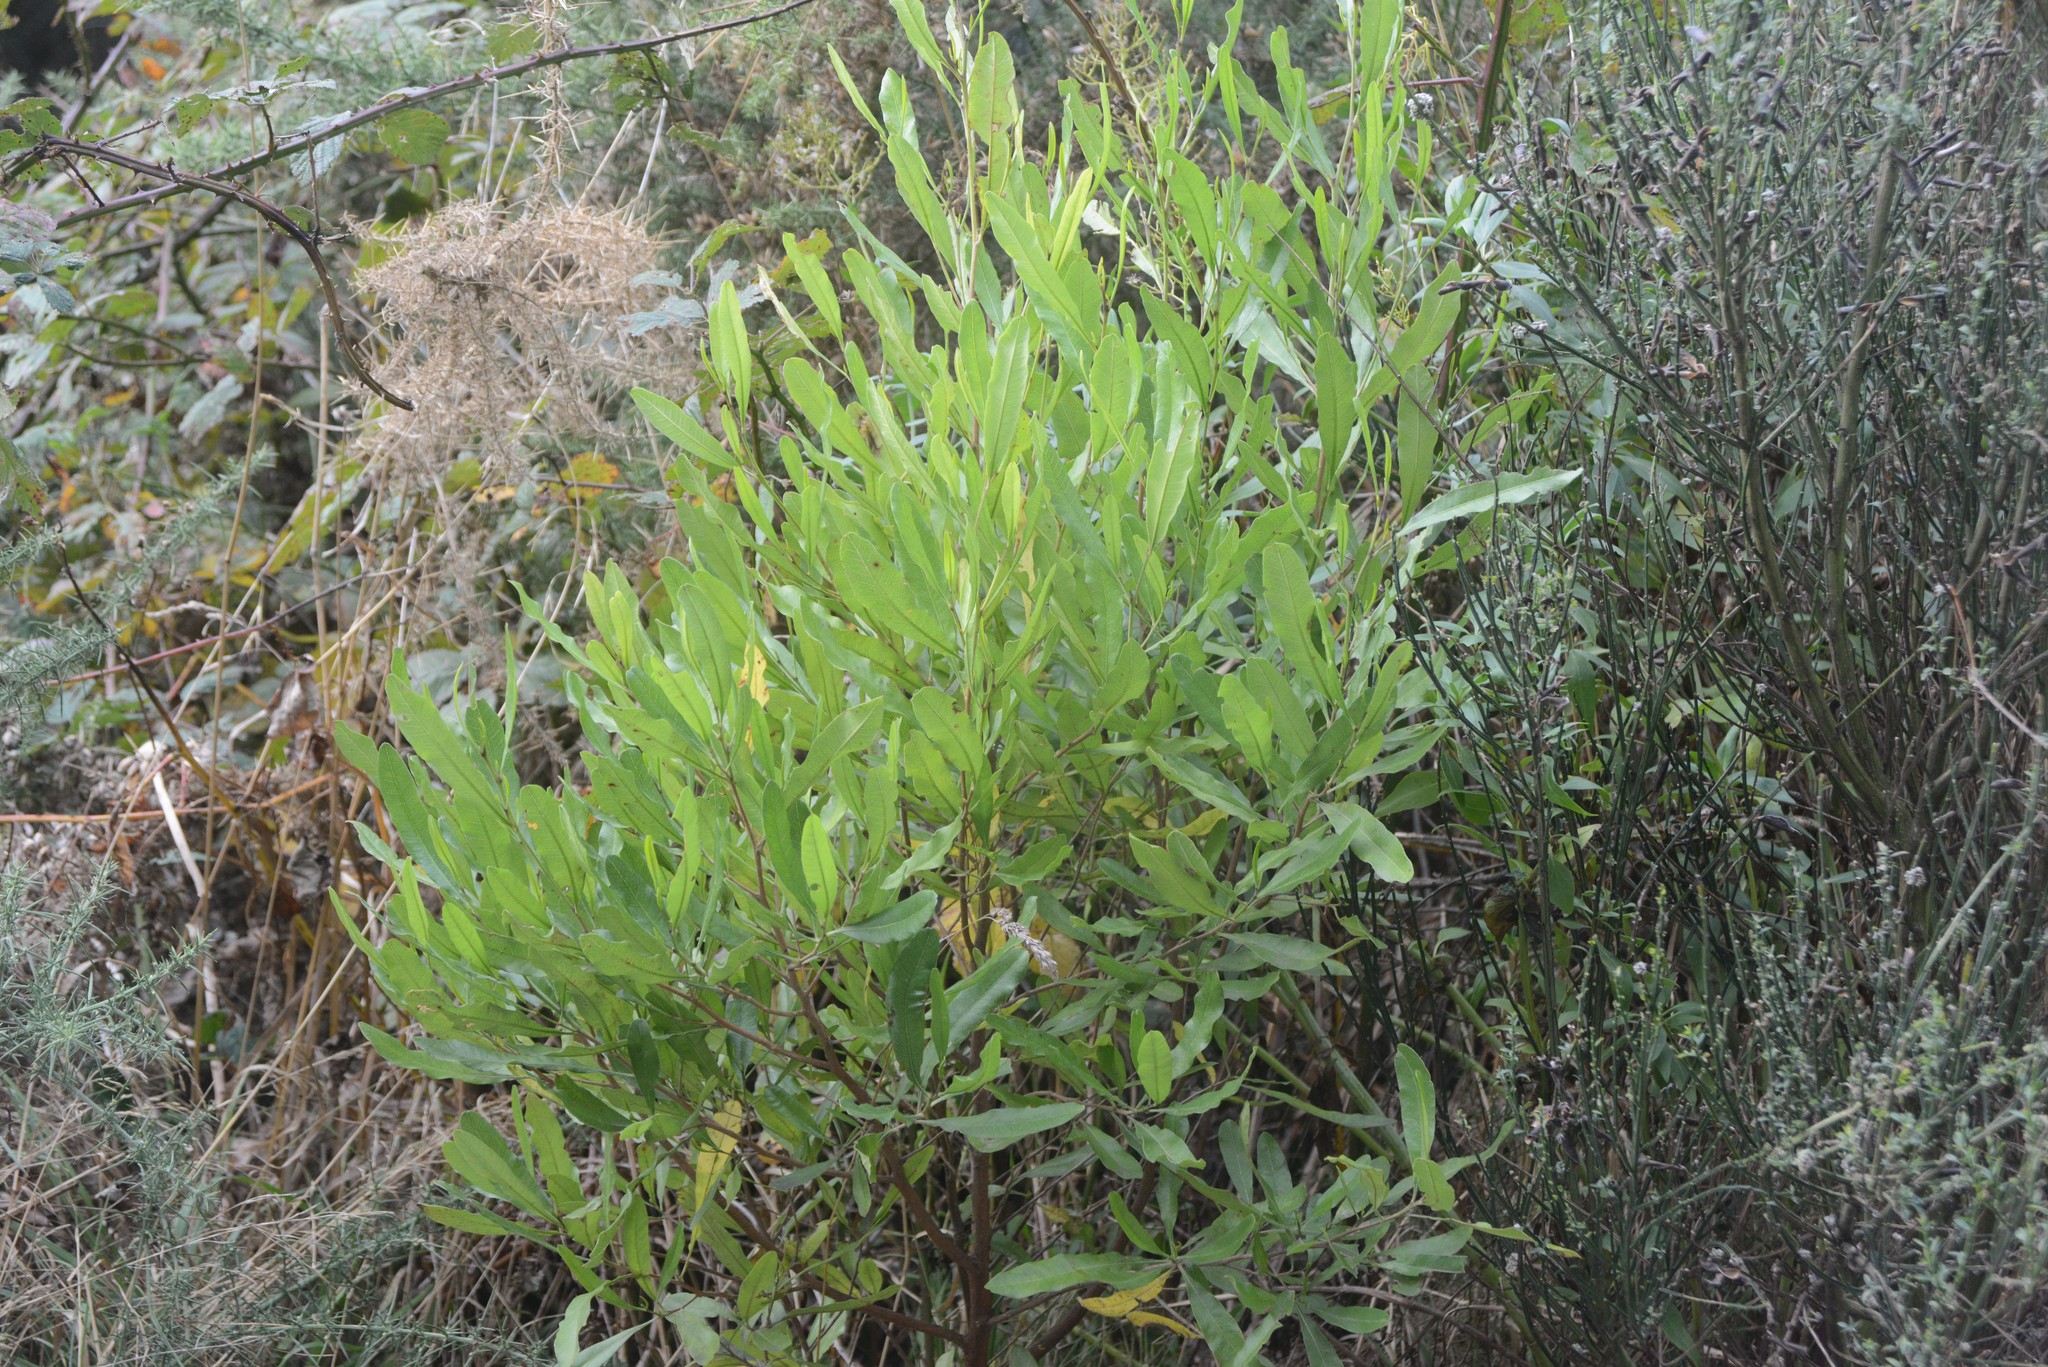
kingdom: Plantae
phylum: Tracheophyta
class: Magnoliopsida
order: Sapindales
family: Sapindaceae
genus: Dodonaea
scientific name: Dodonaea viscosa
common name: Hopbush
